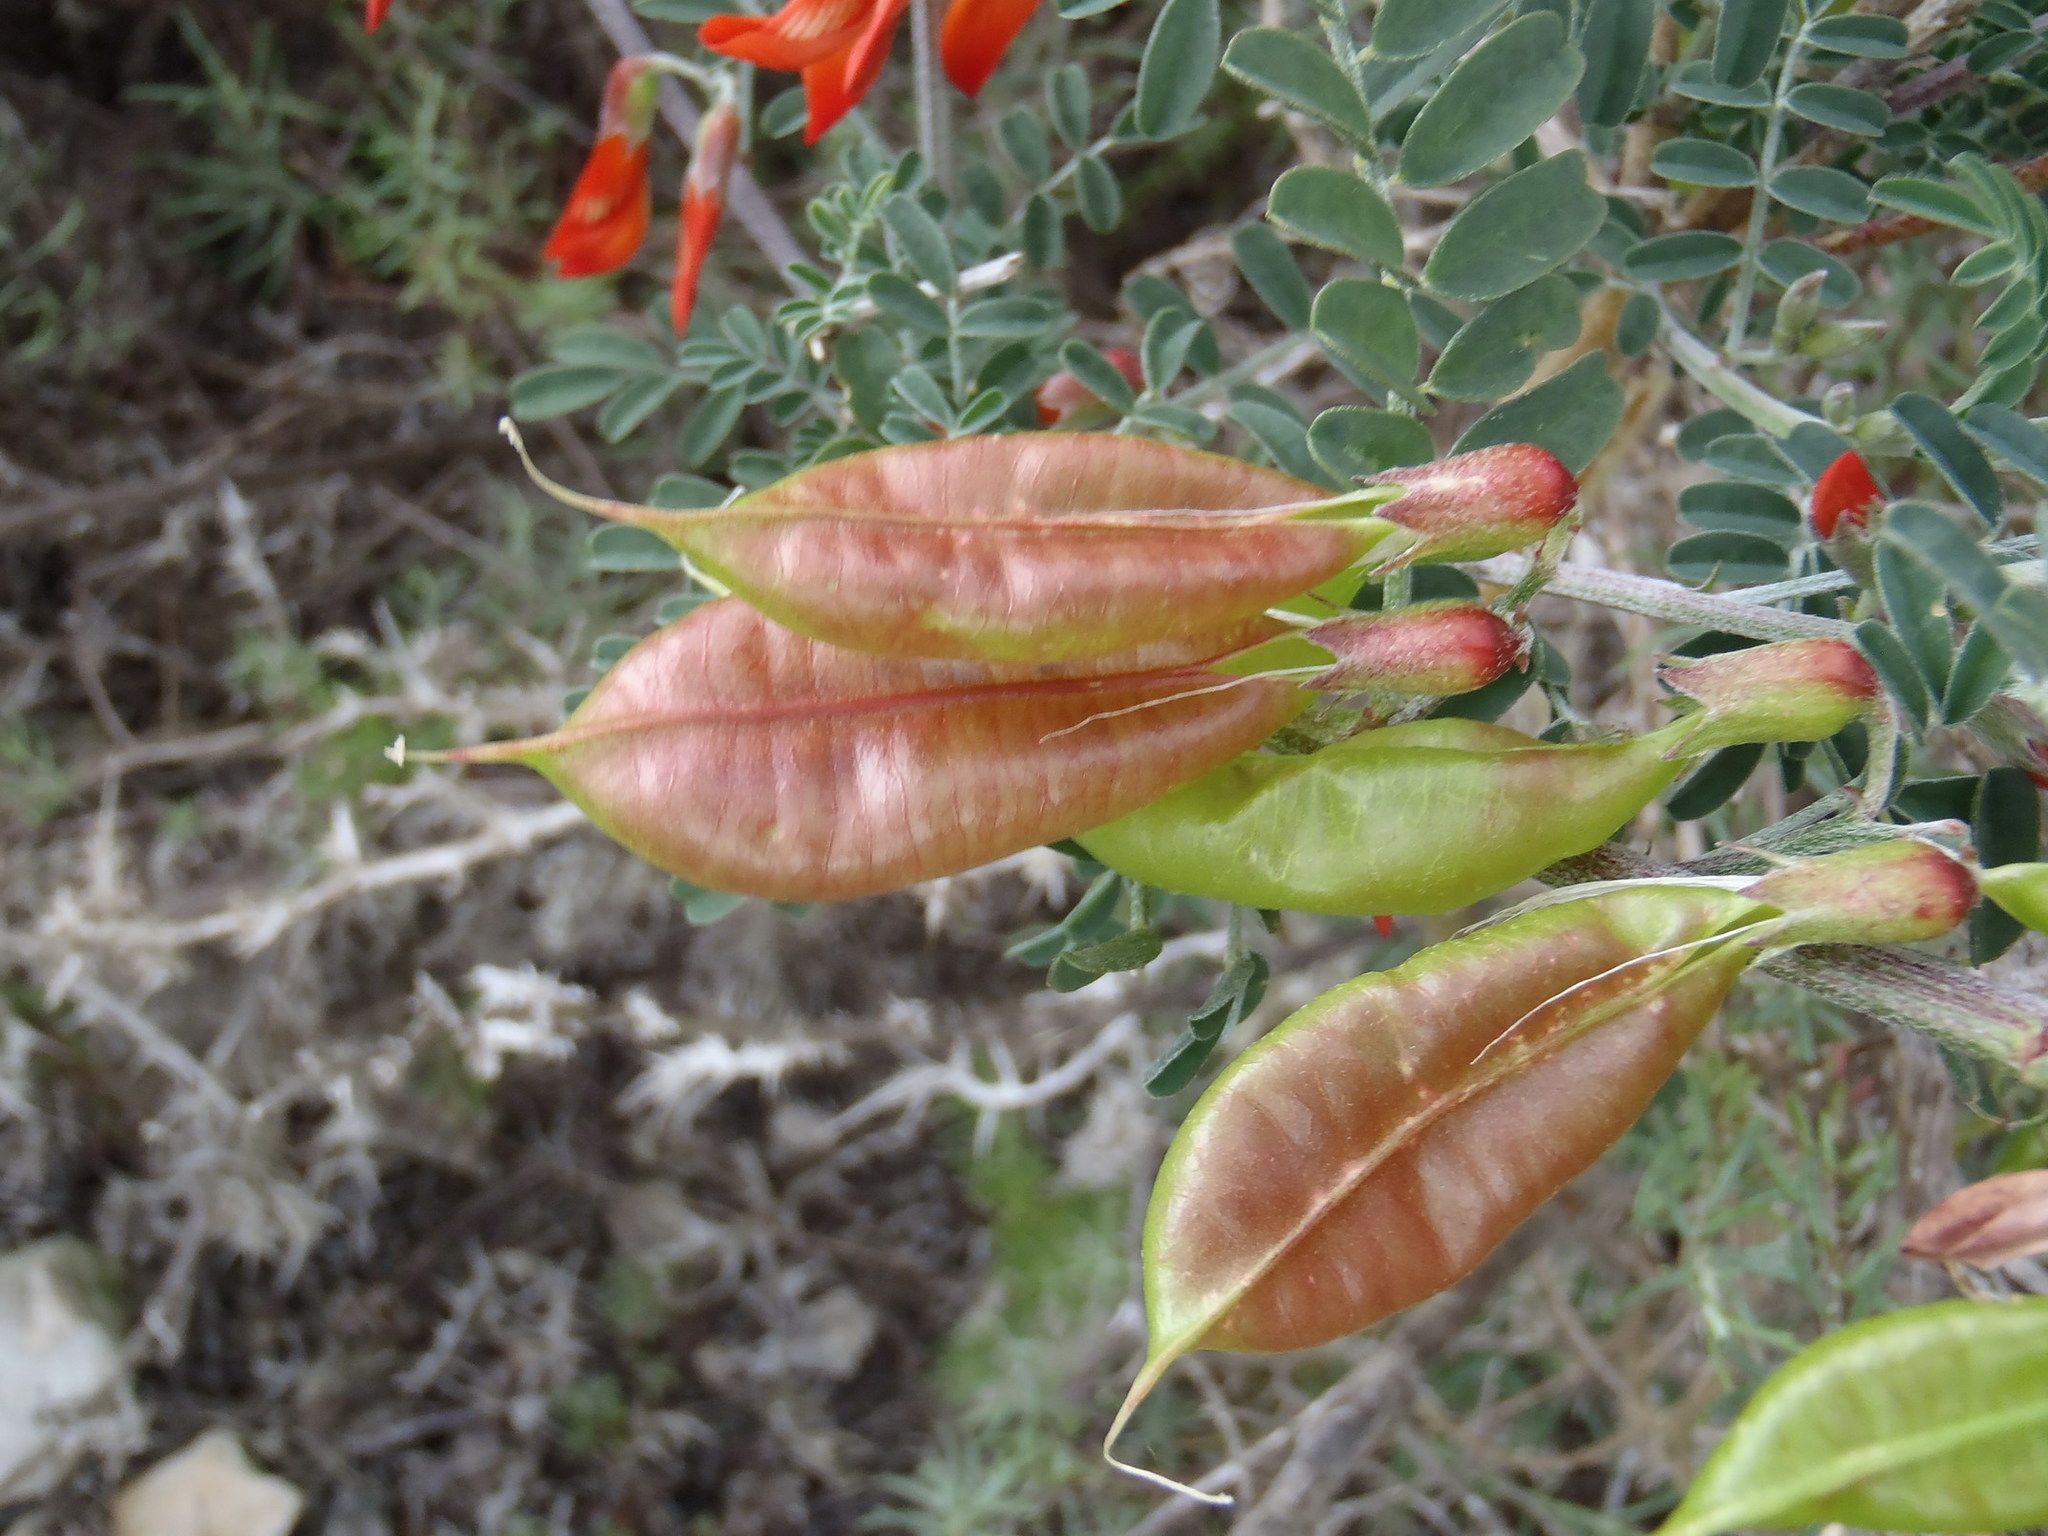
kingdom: Plantae
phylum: Tracheophyta
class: Magnoliopsida
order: Fabales
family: Fabaceae
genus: Lessertia
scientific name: Lessertia frutescens
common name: Balloon-pea
